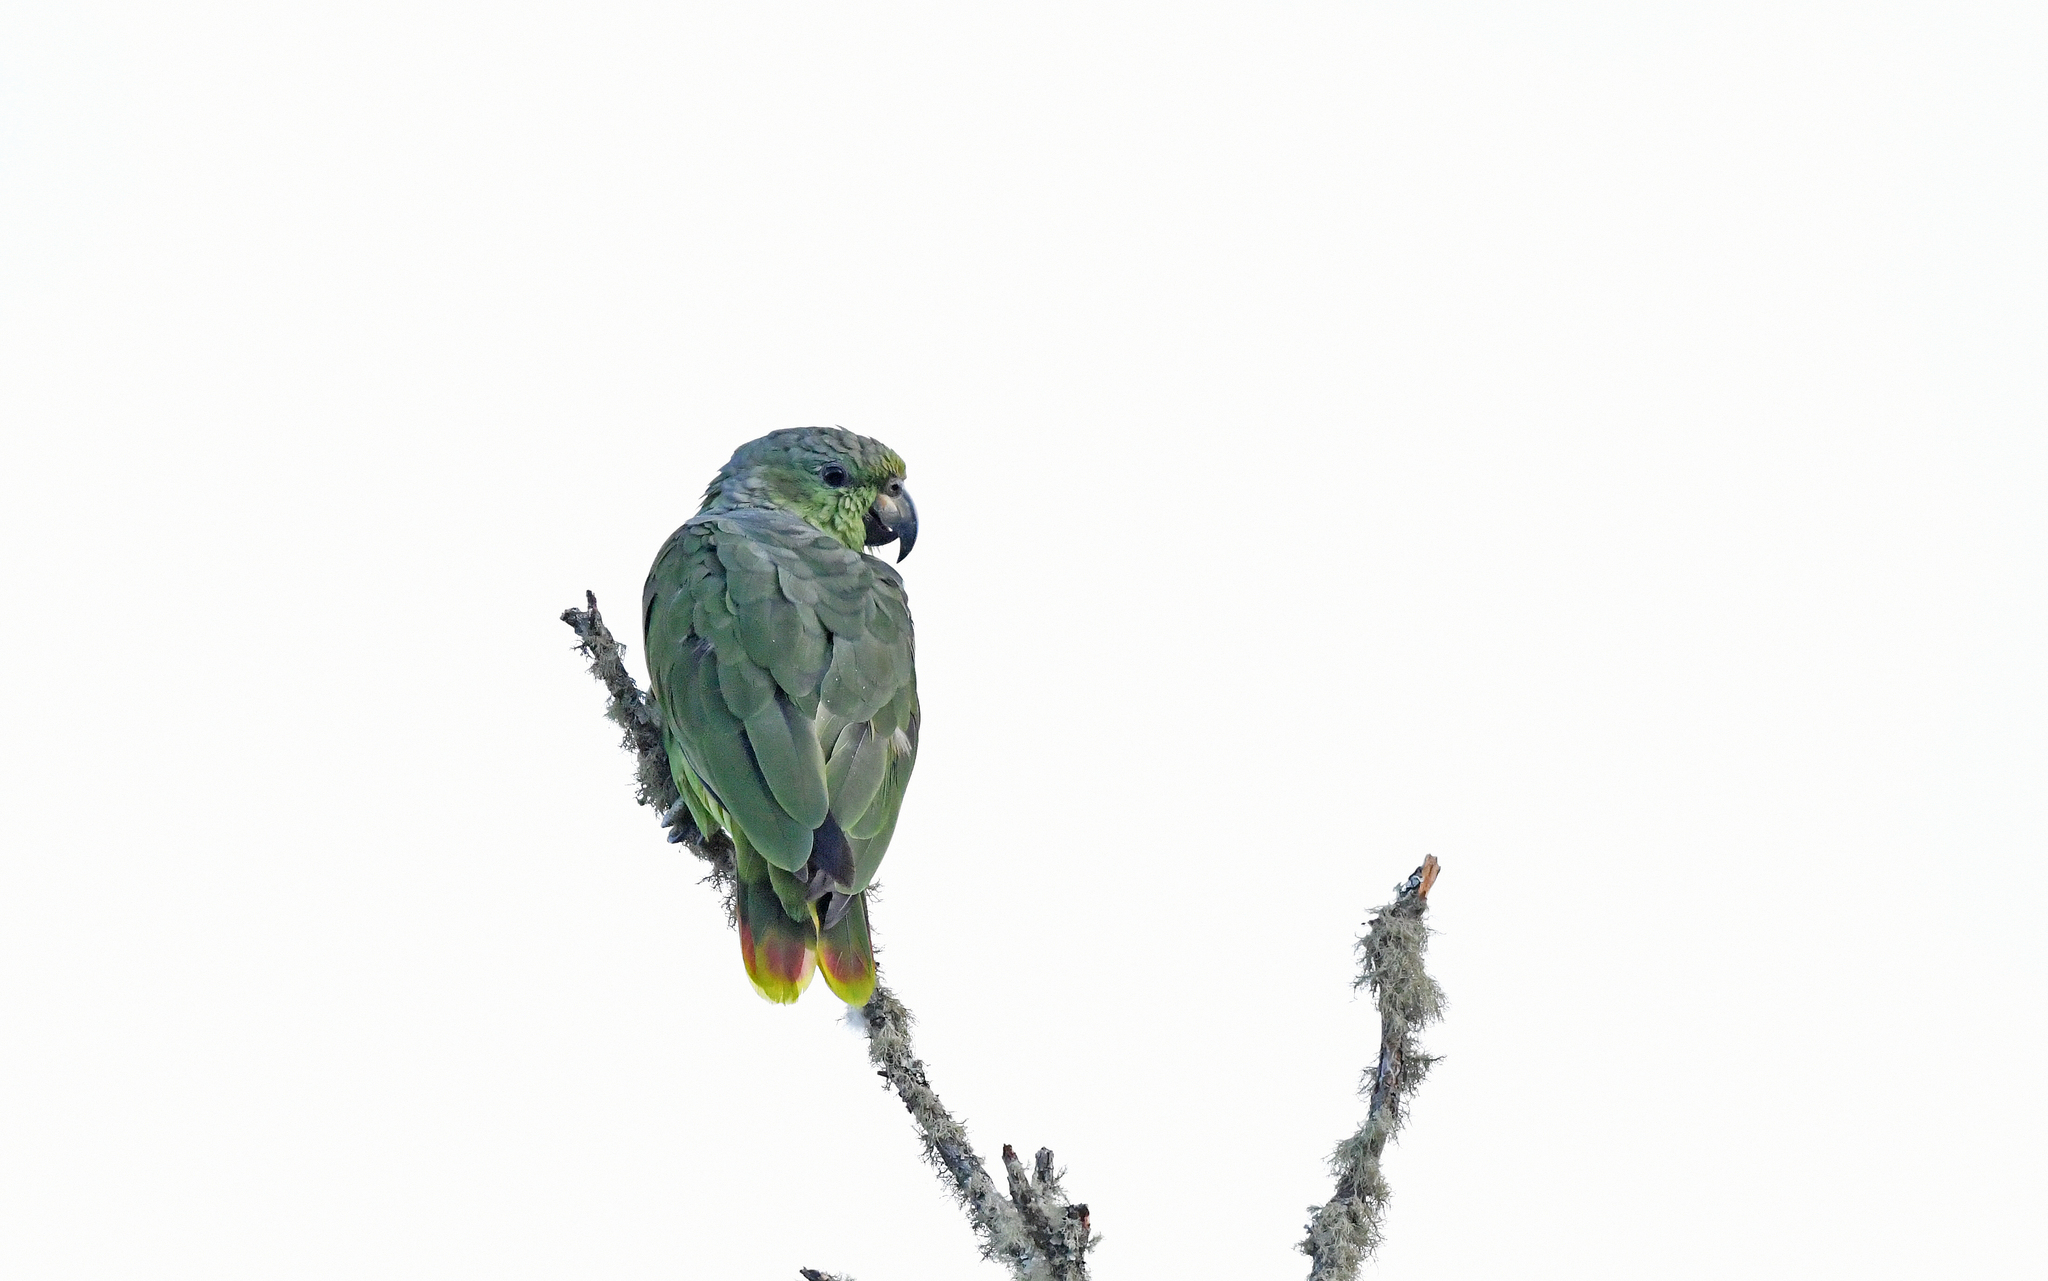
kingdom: Animalia
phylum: Chordata
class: Aves
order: Psittaciformes
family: Psittacidae
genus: Amazona
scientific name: Amazona mercenaria
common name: Scaly-naped amazon
